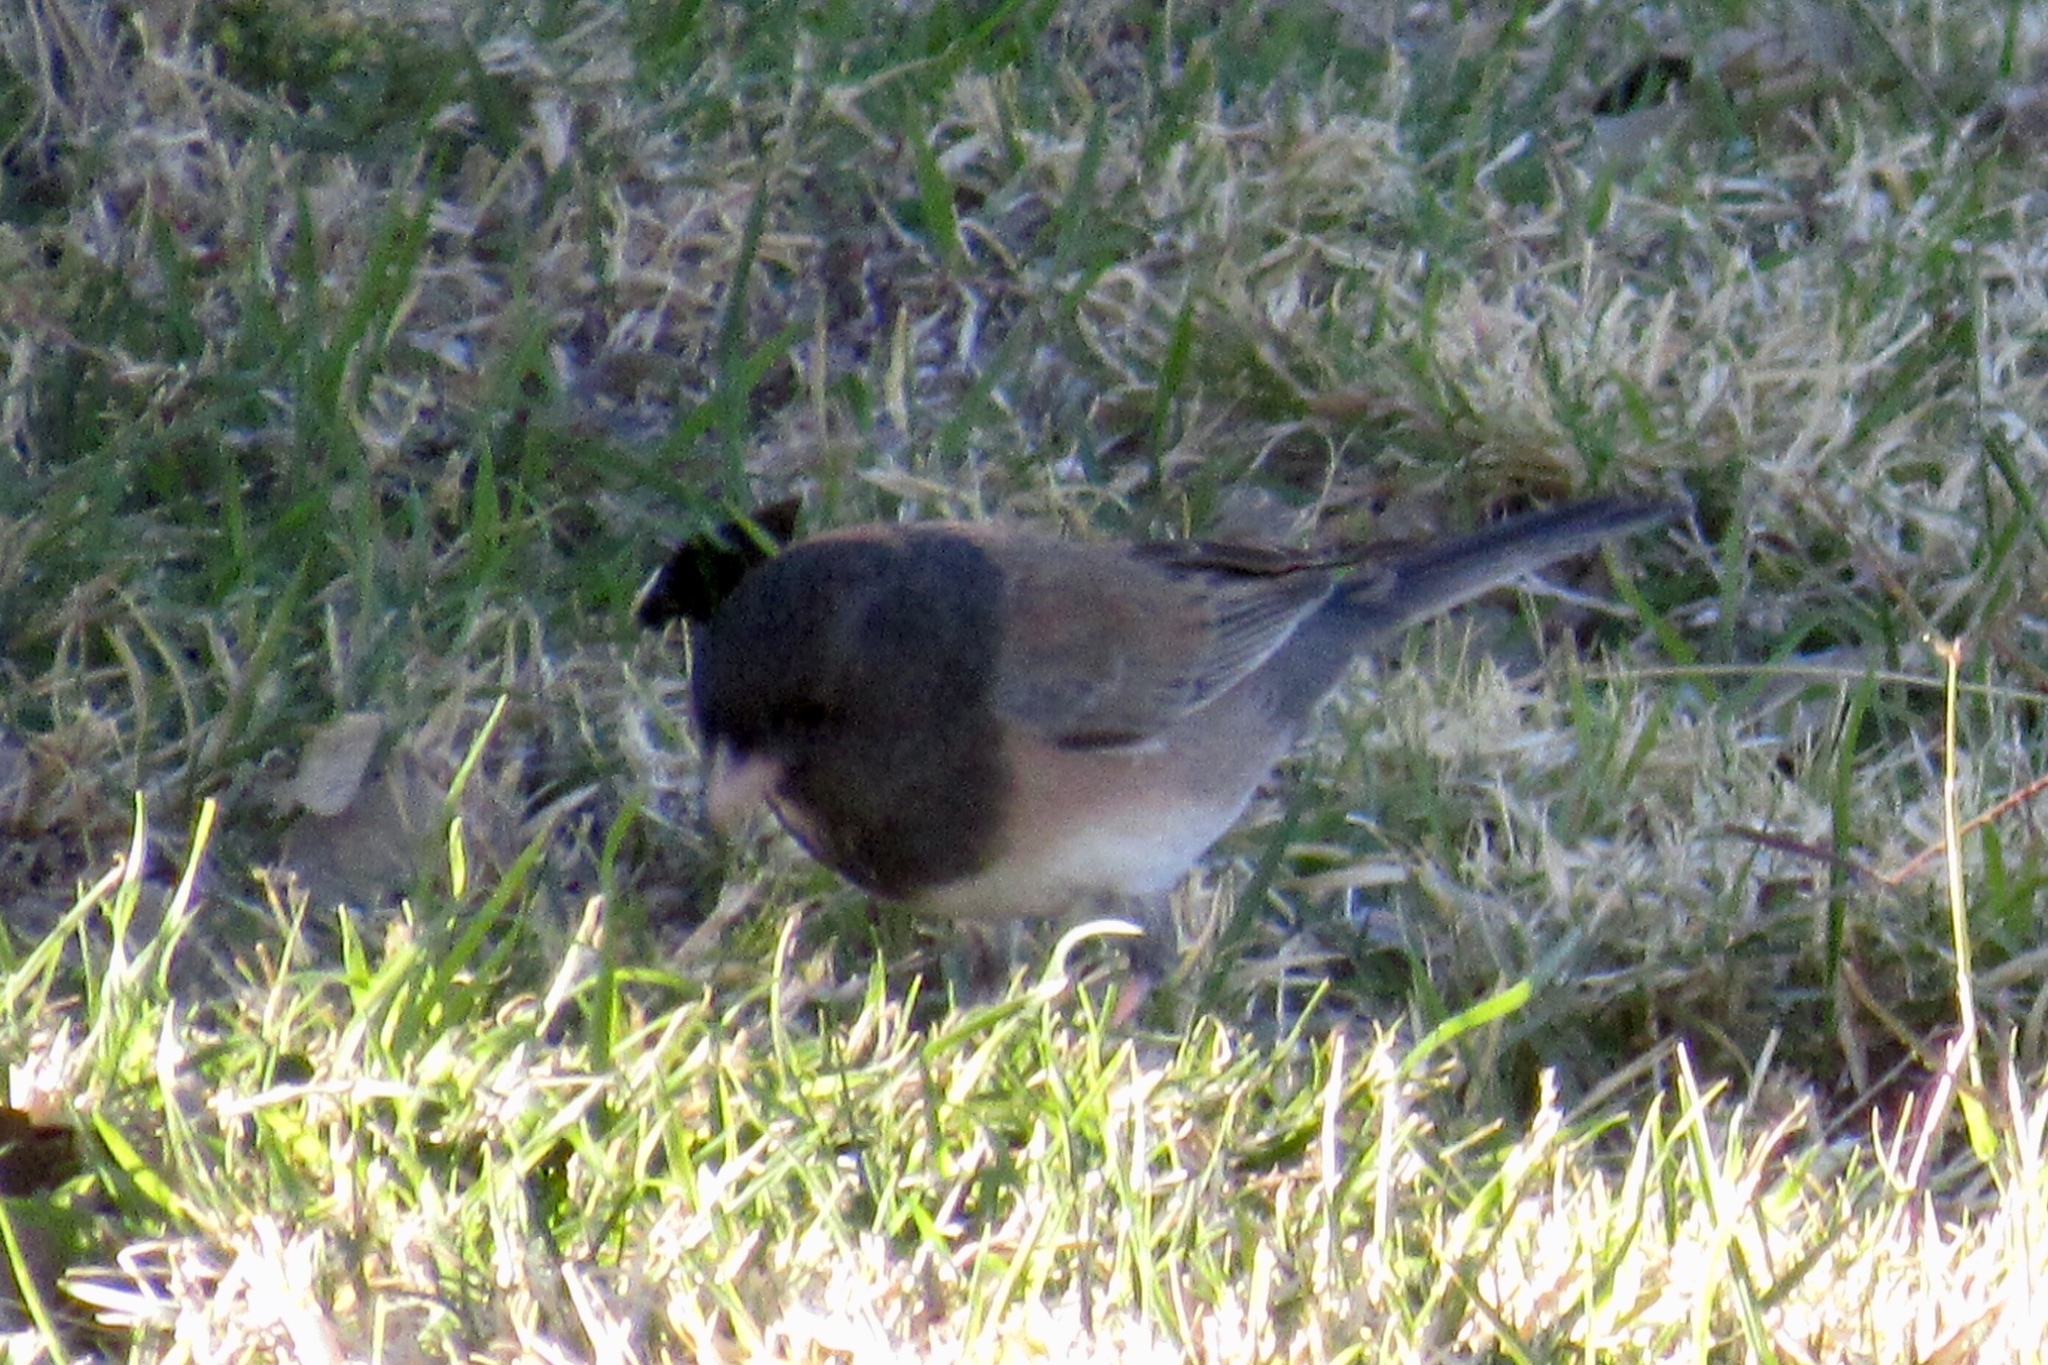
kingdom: Animalia
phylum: Chordata
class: Aves
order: Passeriformes
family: Passerellidae
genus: Junco
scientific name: Junco hyemalis
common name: Dark-eyed junco
